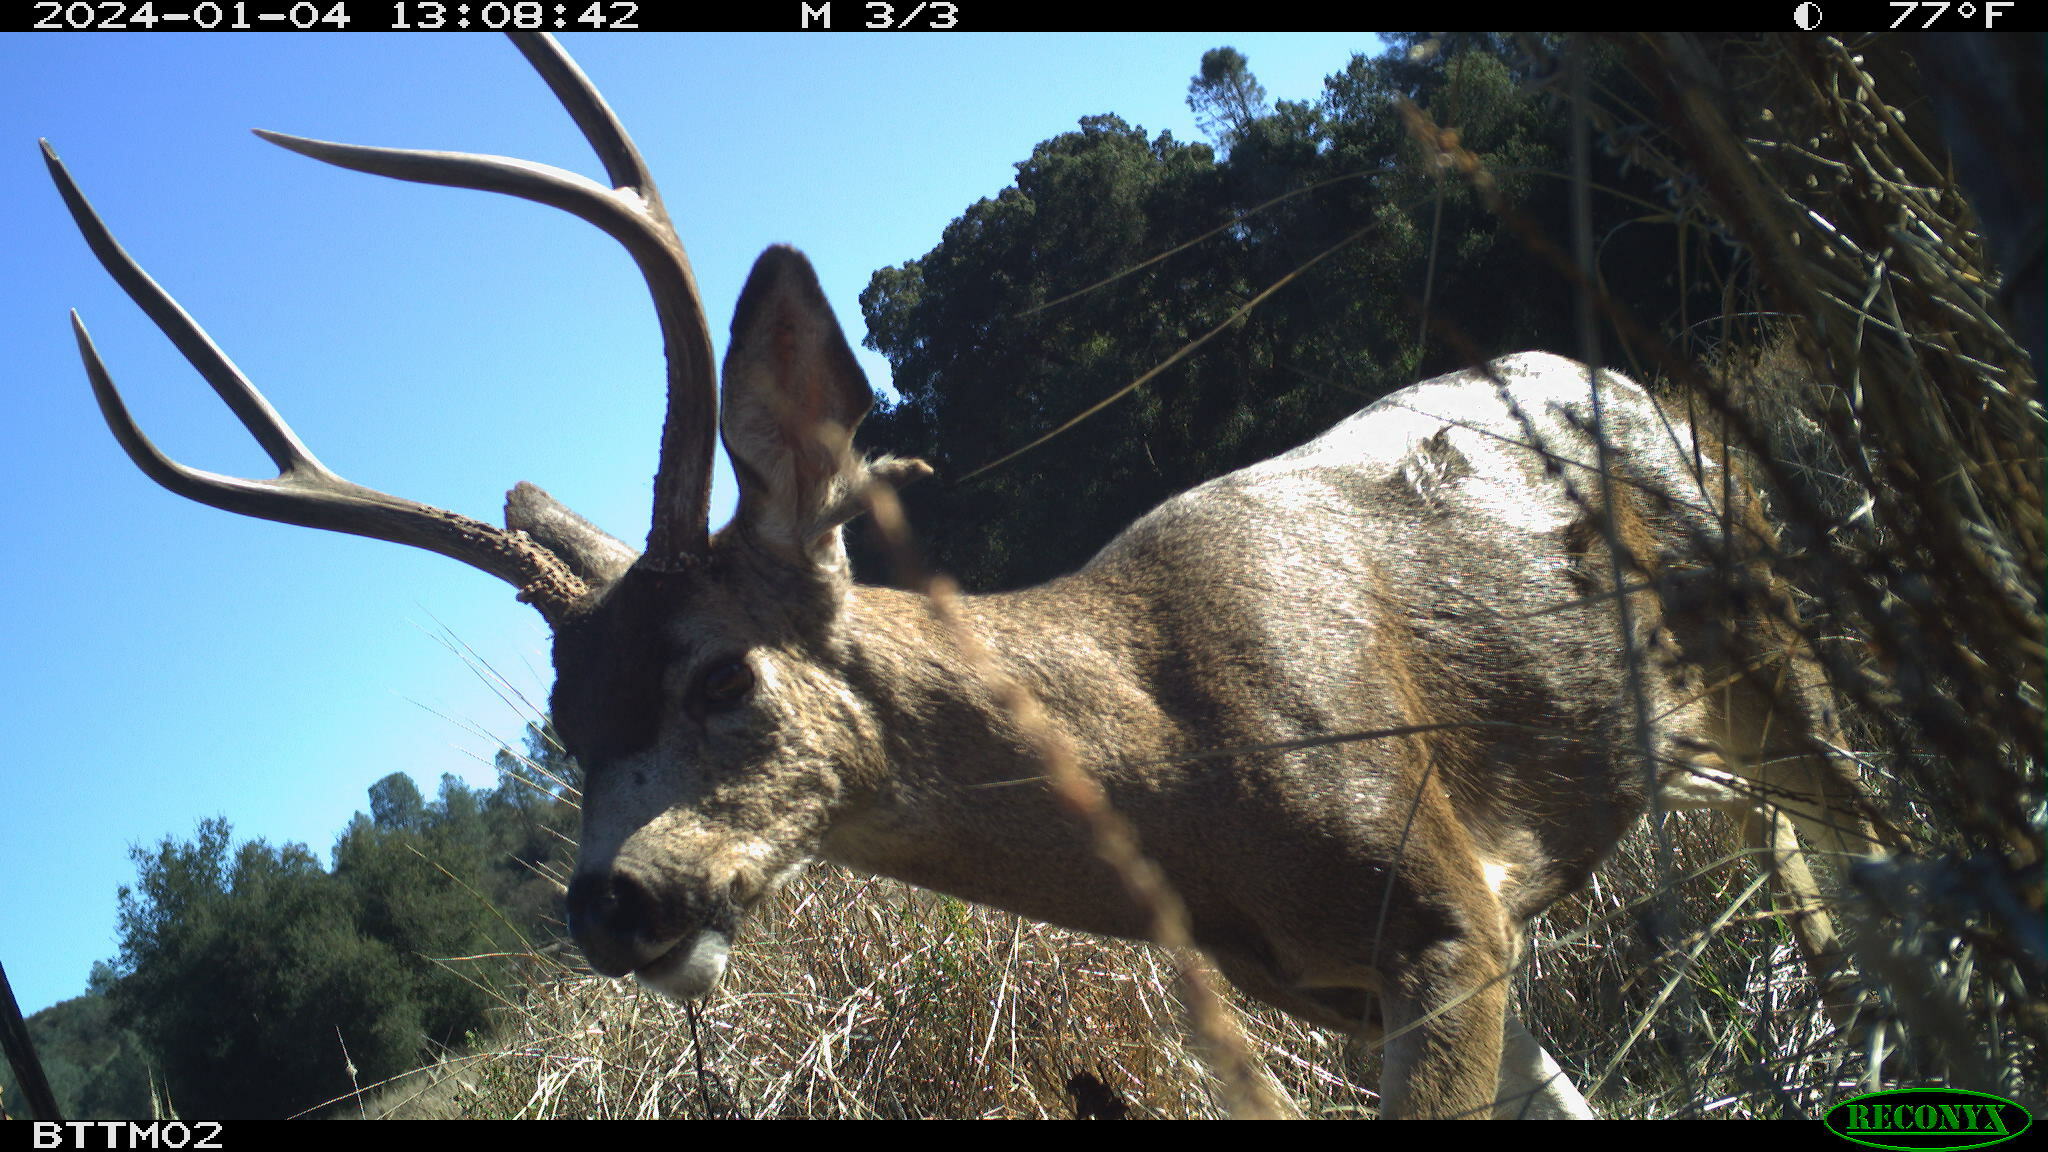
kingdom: Animalia
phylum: Chordata
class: Mammalia
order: Artiodactyla
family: Cervidae
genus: Odocoileus
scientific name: Odocoileus hemionus
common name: Mule deer
